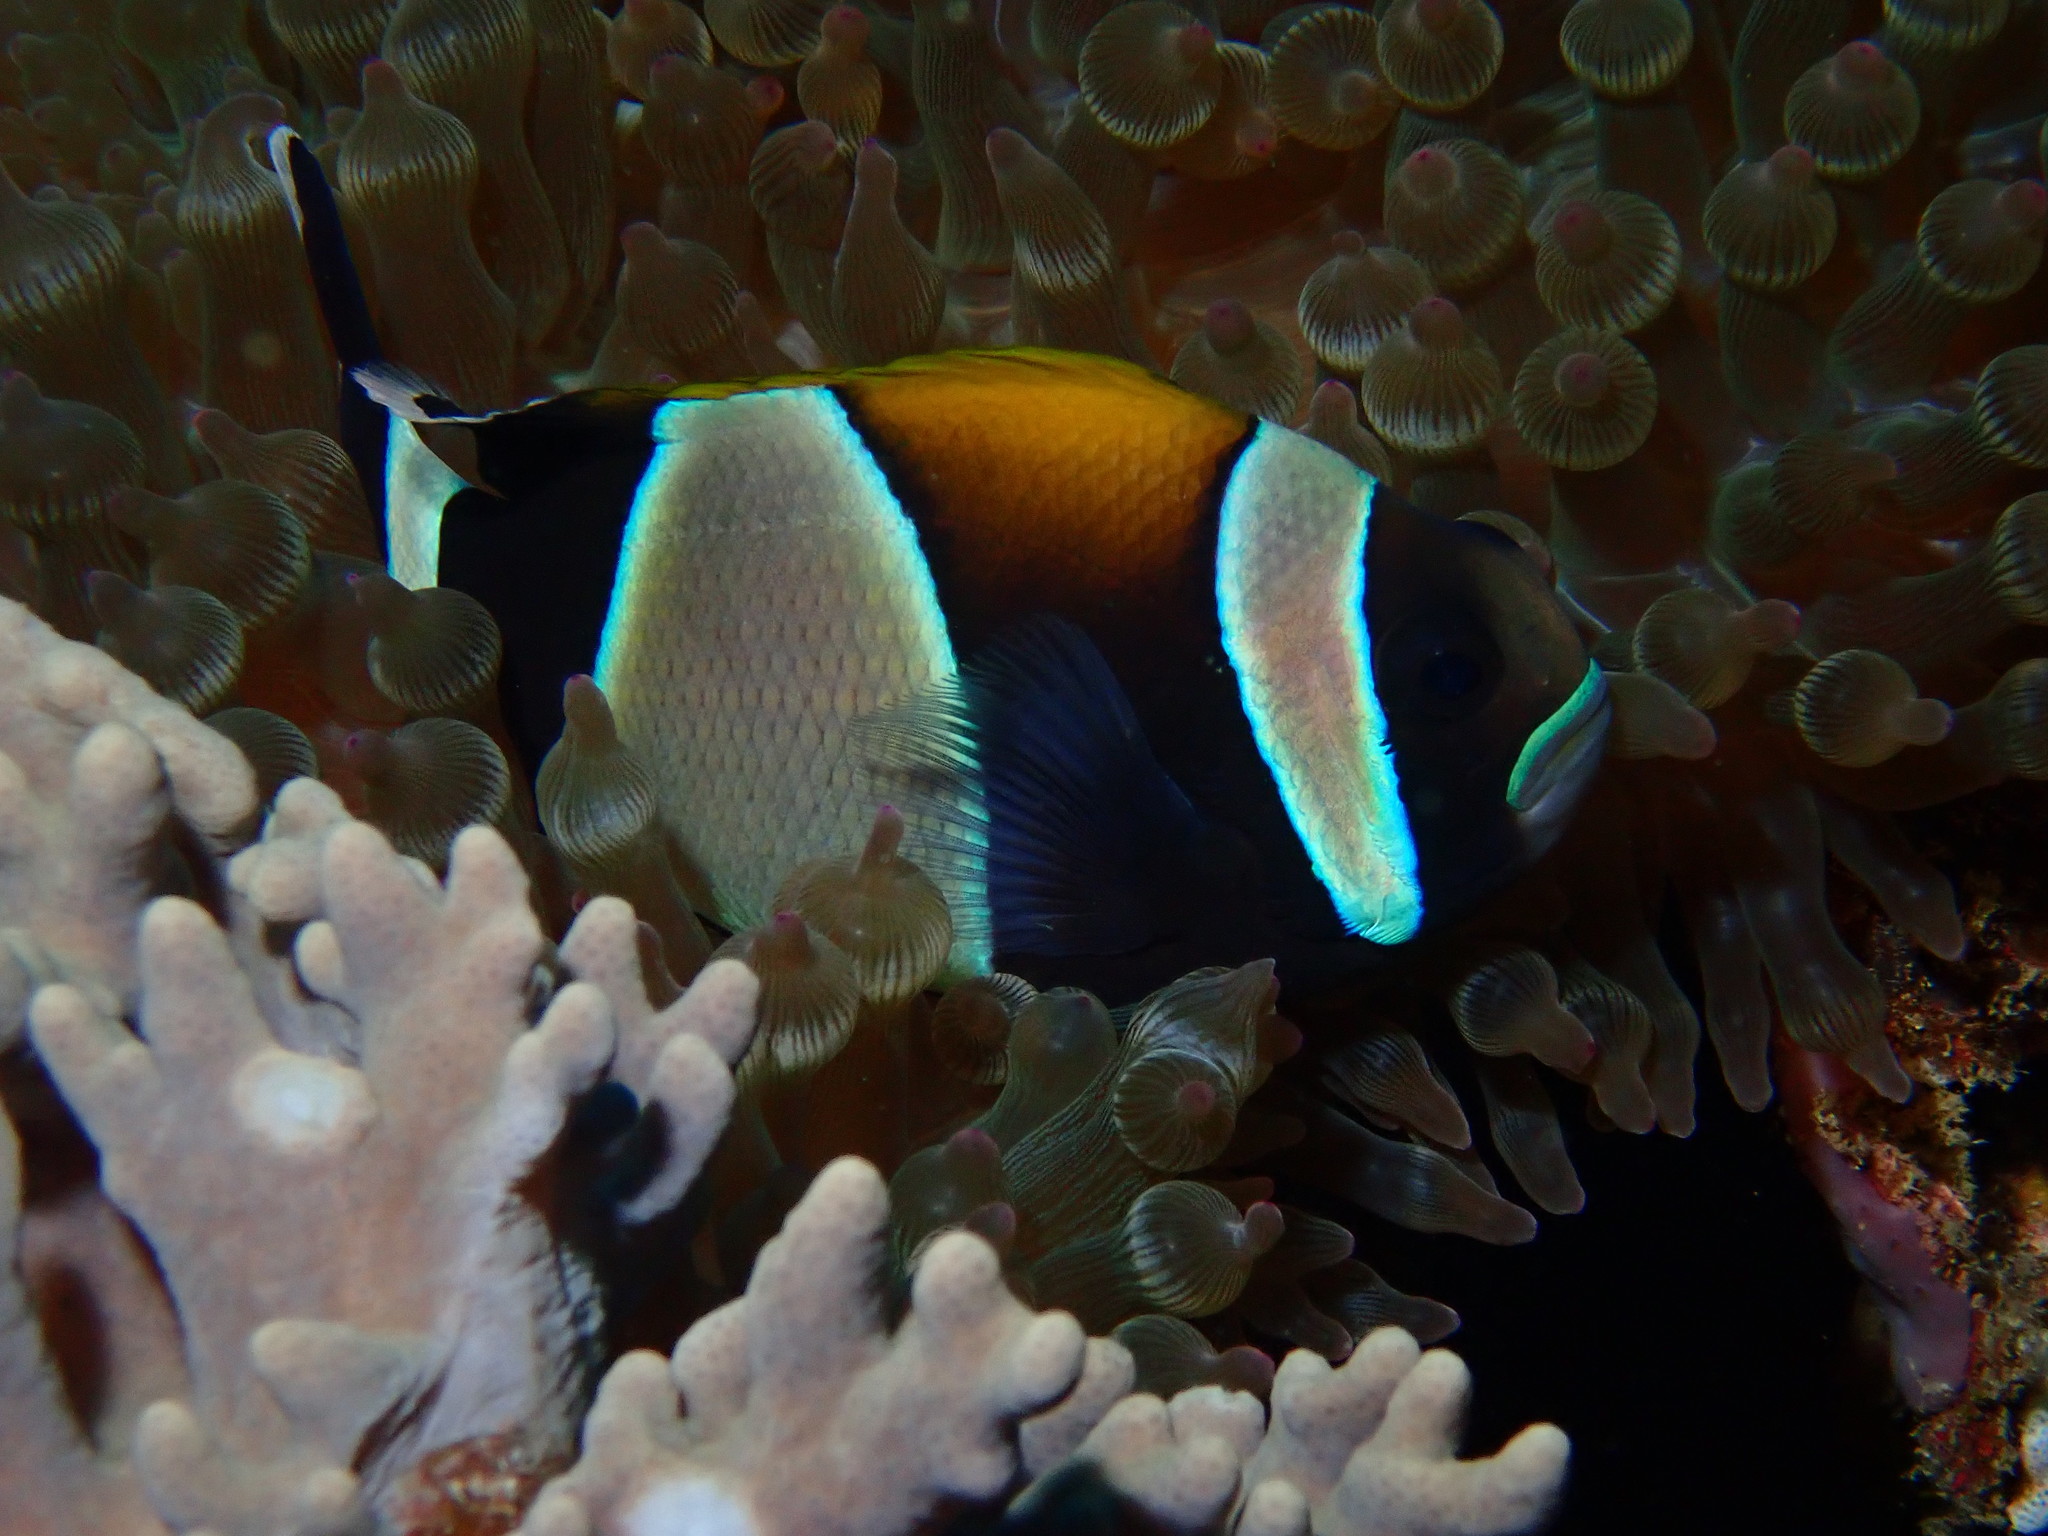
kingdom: Animalia
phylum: Chordata
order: Perciformes
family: Pomacentridae
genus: Amphiprion
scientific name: Amphiprion latezonatus
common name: Wide-band anemonefish
